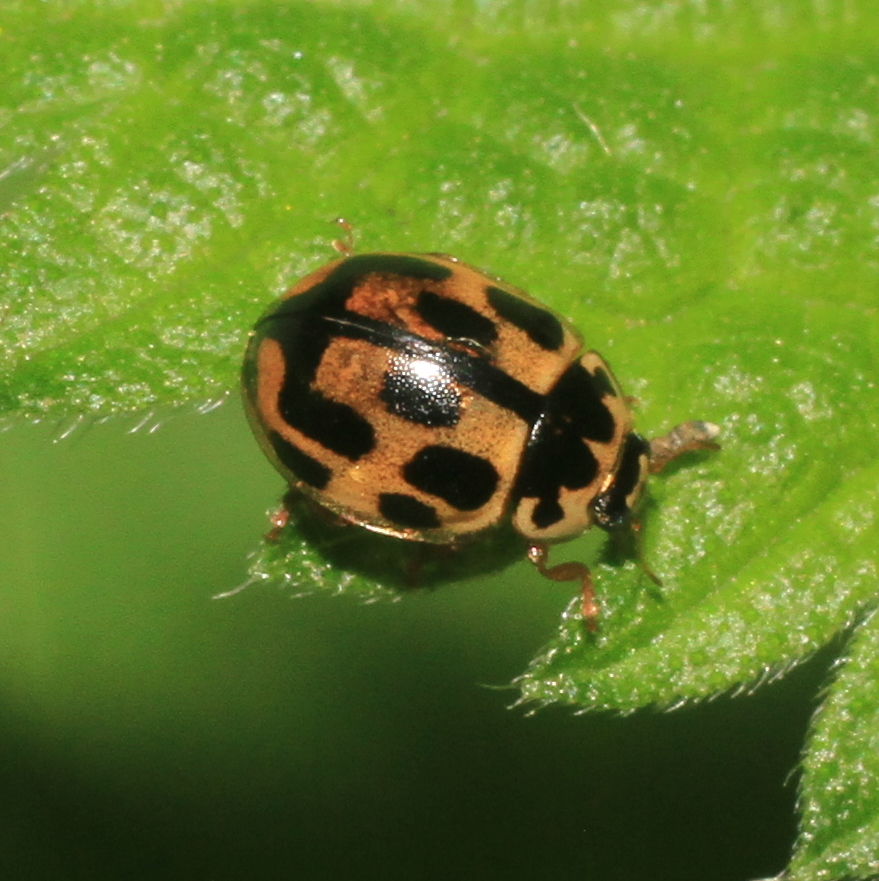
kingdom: Animalia
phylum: Arthropoda
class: Insecta
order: Coleoptera
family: Coccinellidae
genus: Propylaea
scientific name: Propylaea quatuordecimpunctata
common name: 14-spotted ladybird beetle
